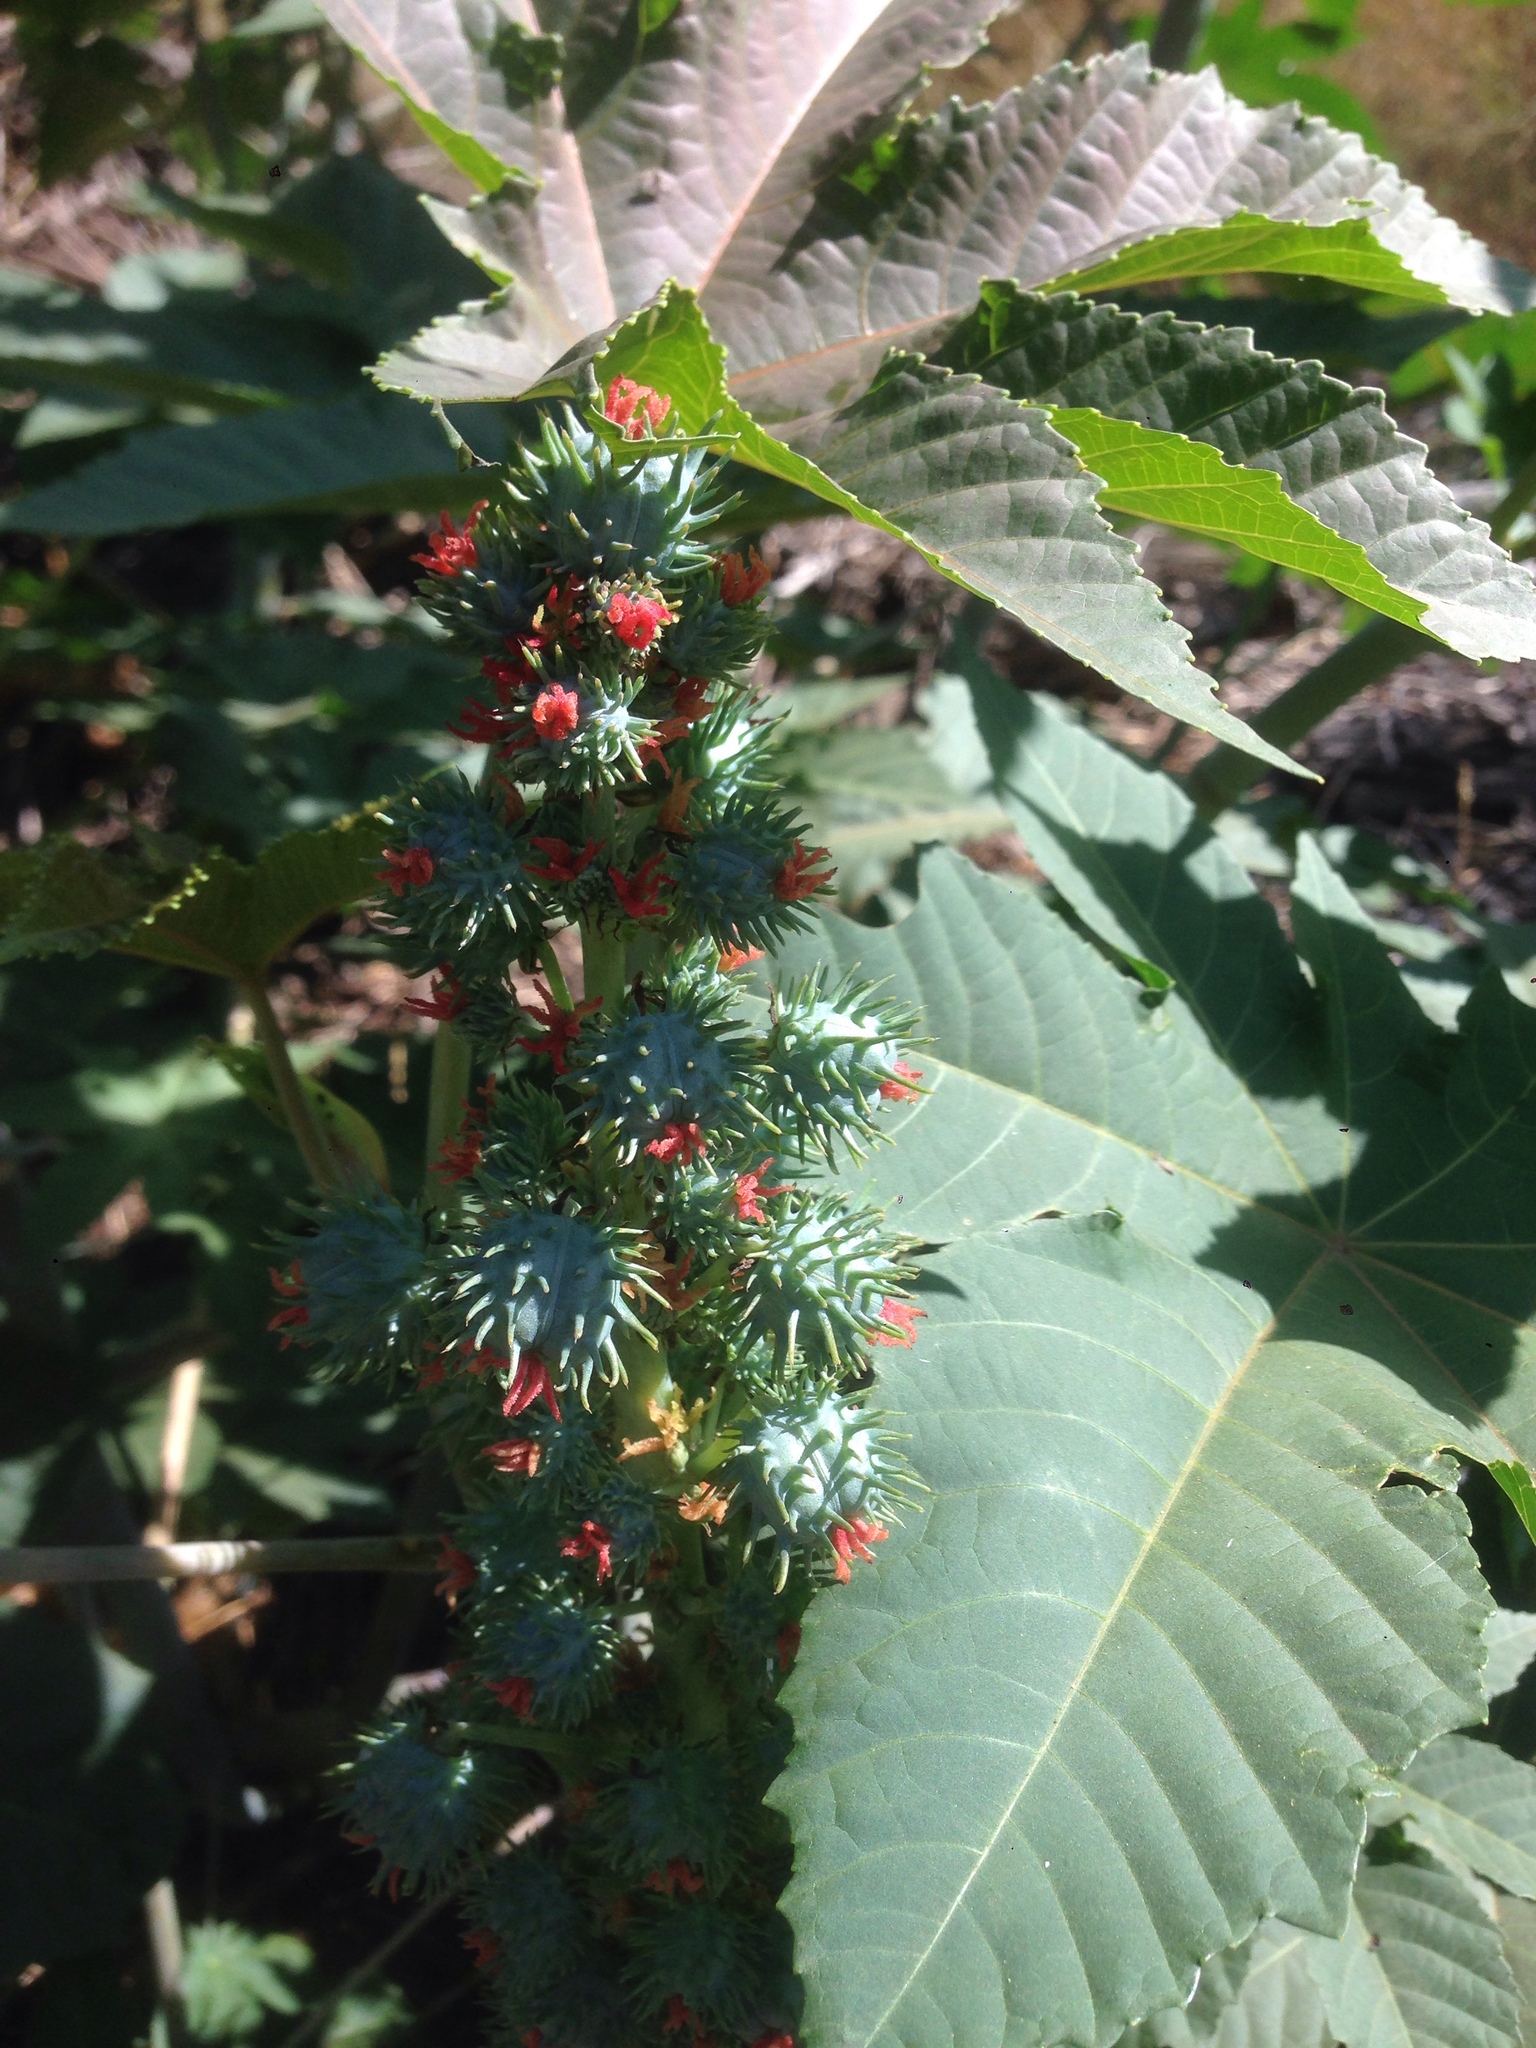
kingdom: Plantae
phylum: Tracheophyta
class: Magnoliopsida
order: Malpighiales
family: Euphorbiaceae
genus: Ricinus
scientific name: Ricinus communis
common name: Castor-oil-plant
